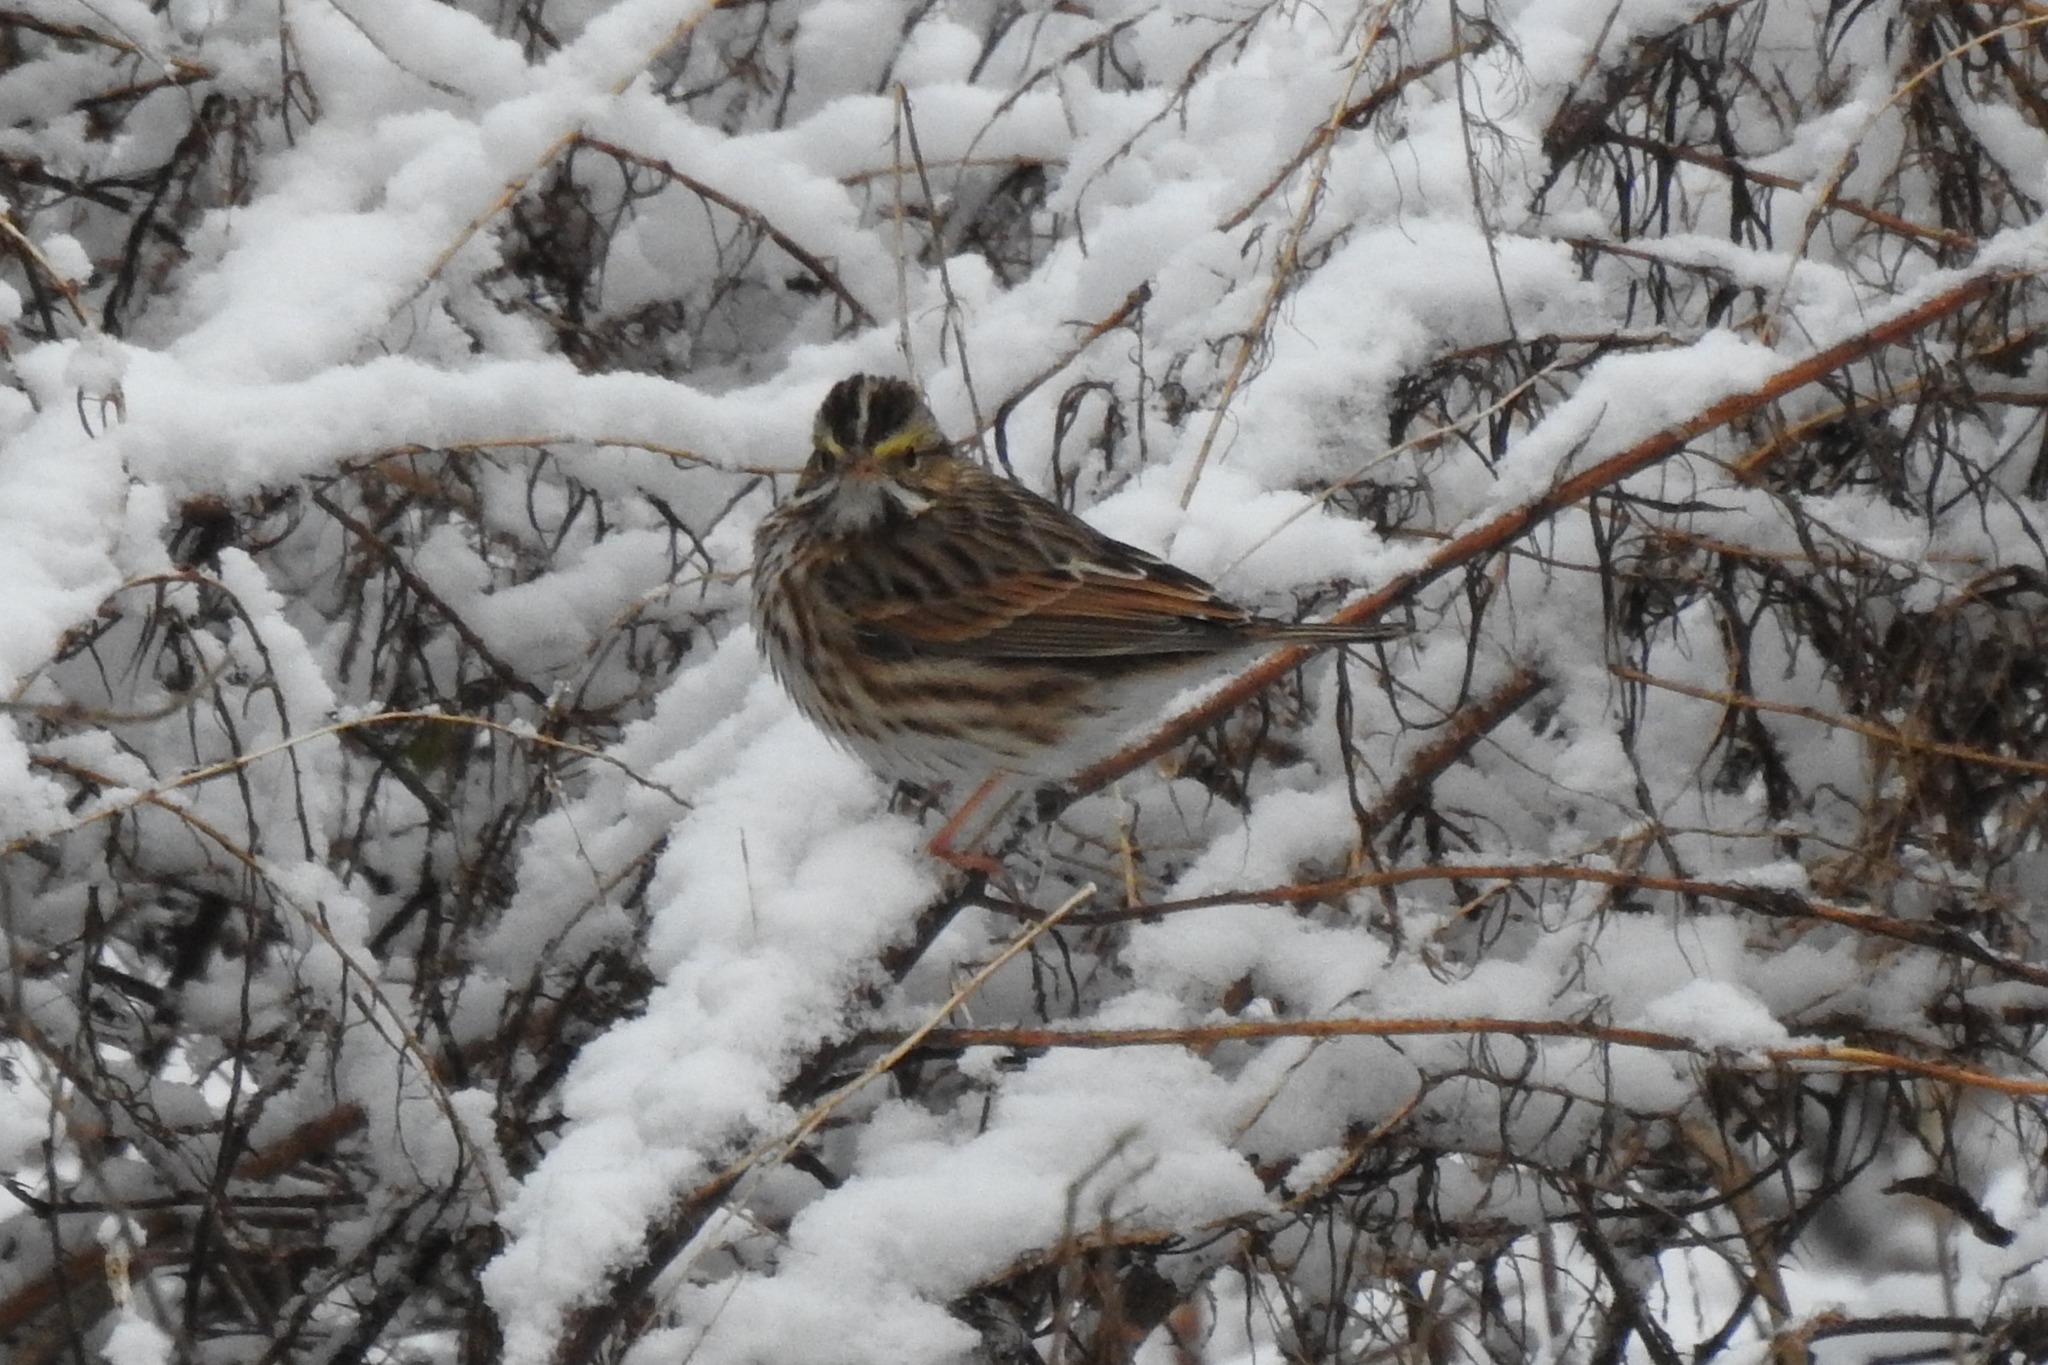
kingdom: Animalia
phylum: Chordata
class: Aves
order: Passeriformes
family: Passerellidae
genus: Passerculus
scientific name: Passerculus sandwichensis
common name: Savannah sparrow
